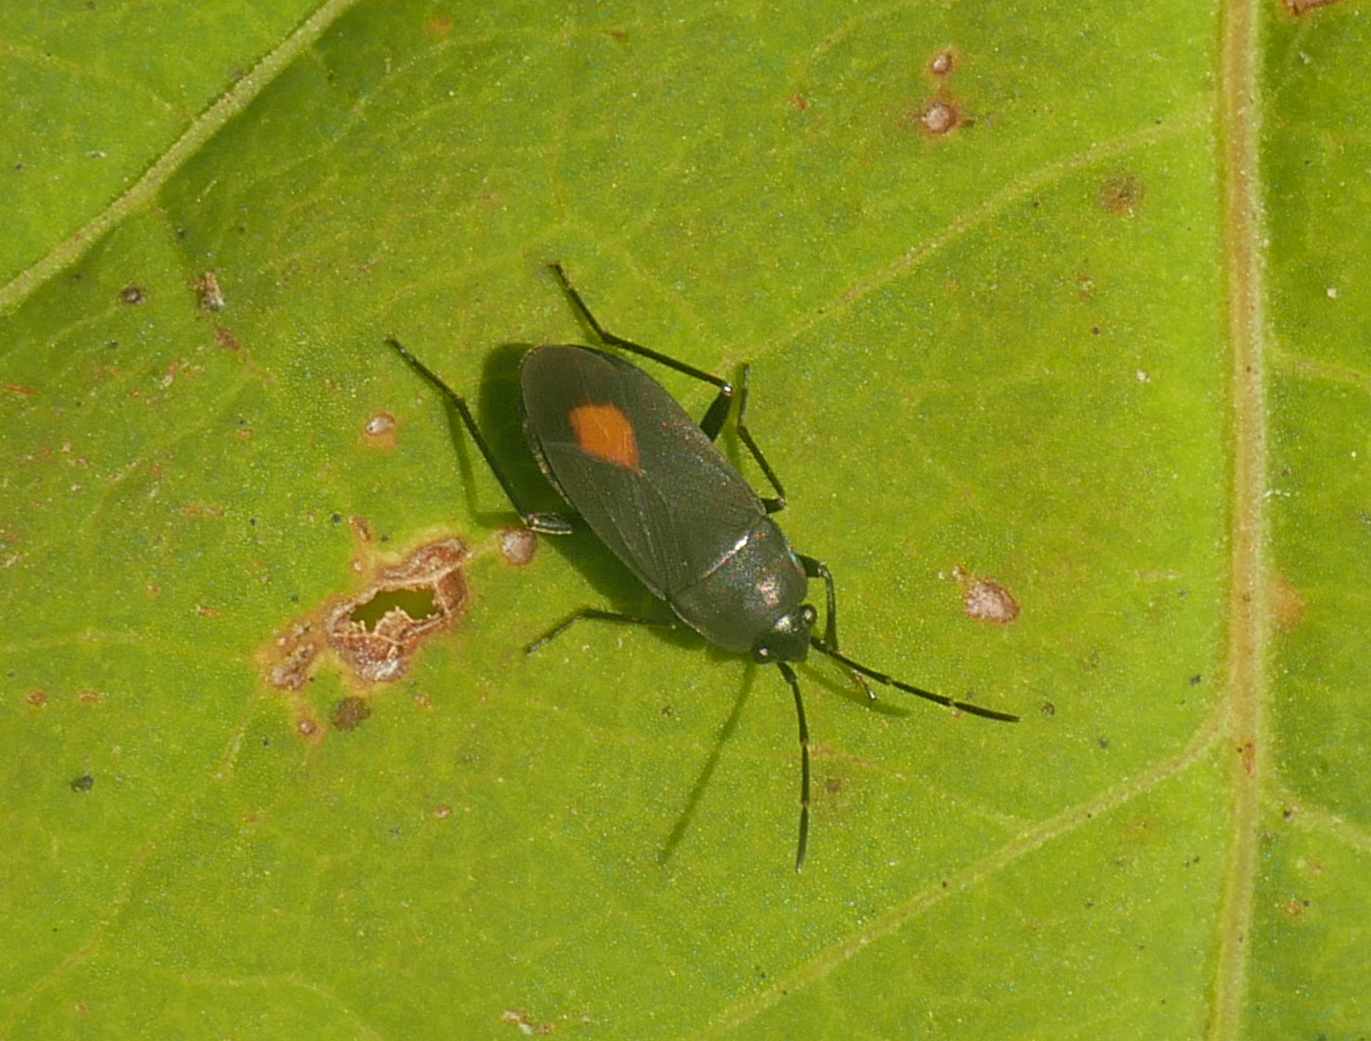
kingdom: Animalia
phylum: Arthropoda
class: Insecta
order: Hemiptera
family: Rhyparochromidae
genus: Aphanus
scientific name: Aphanus rolandri
